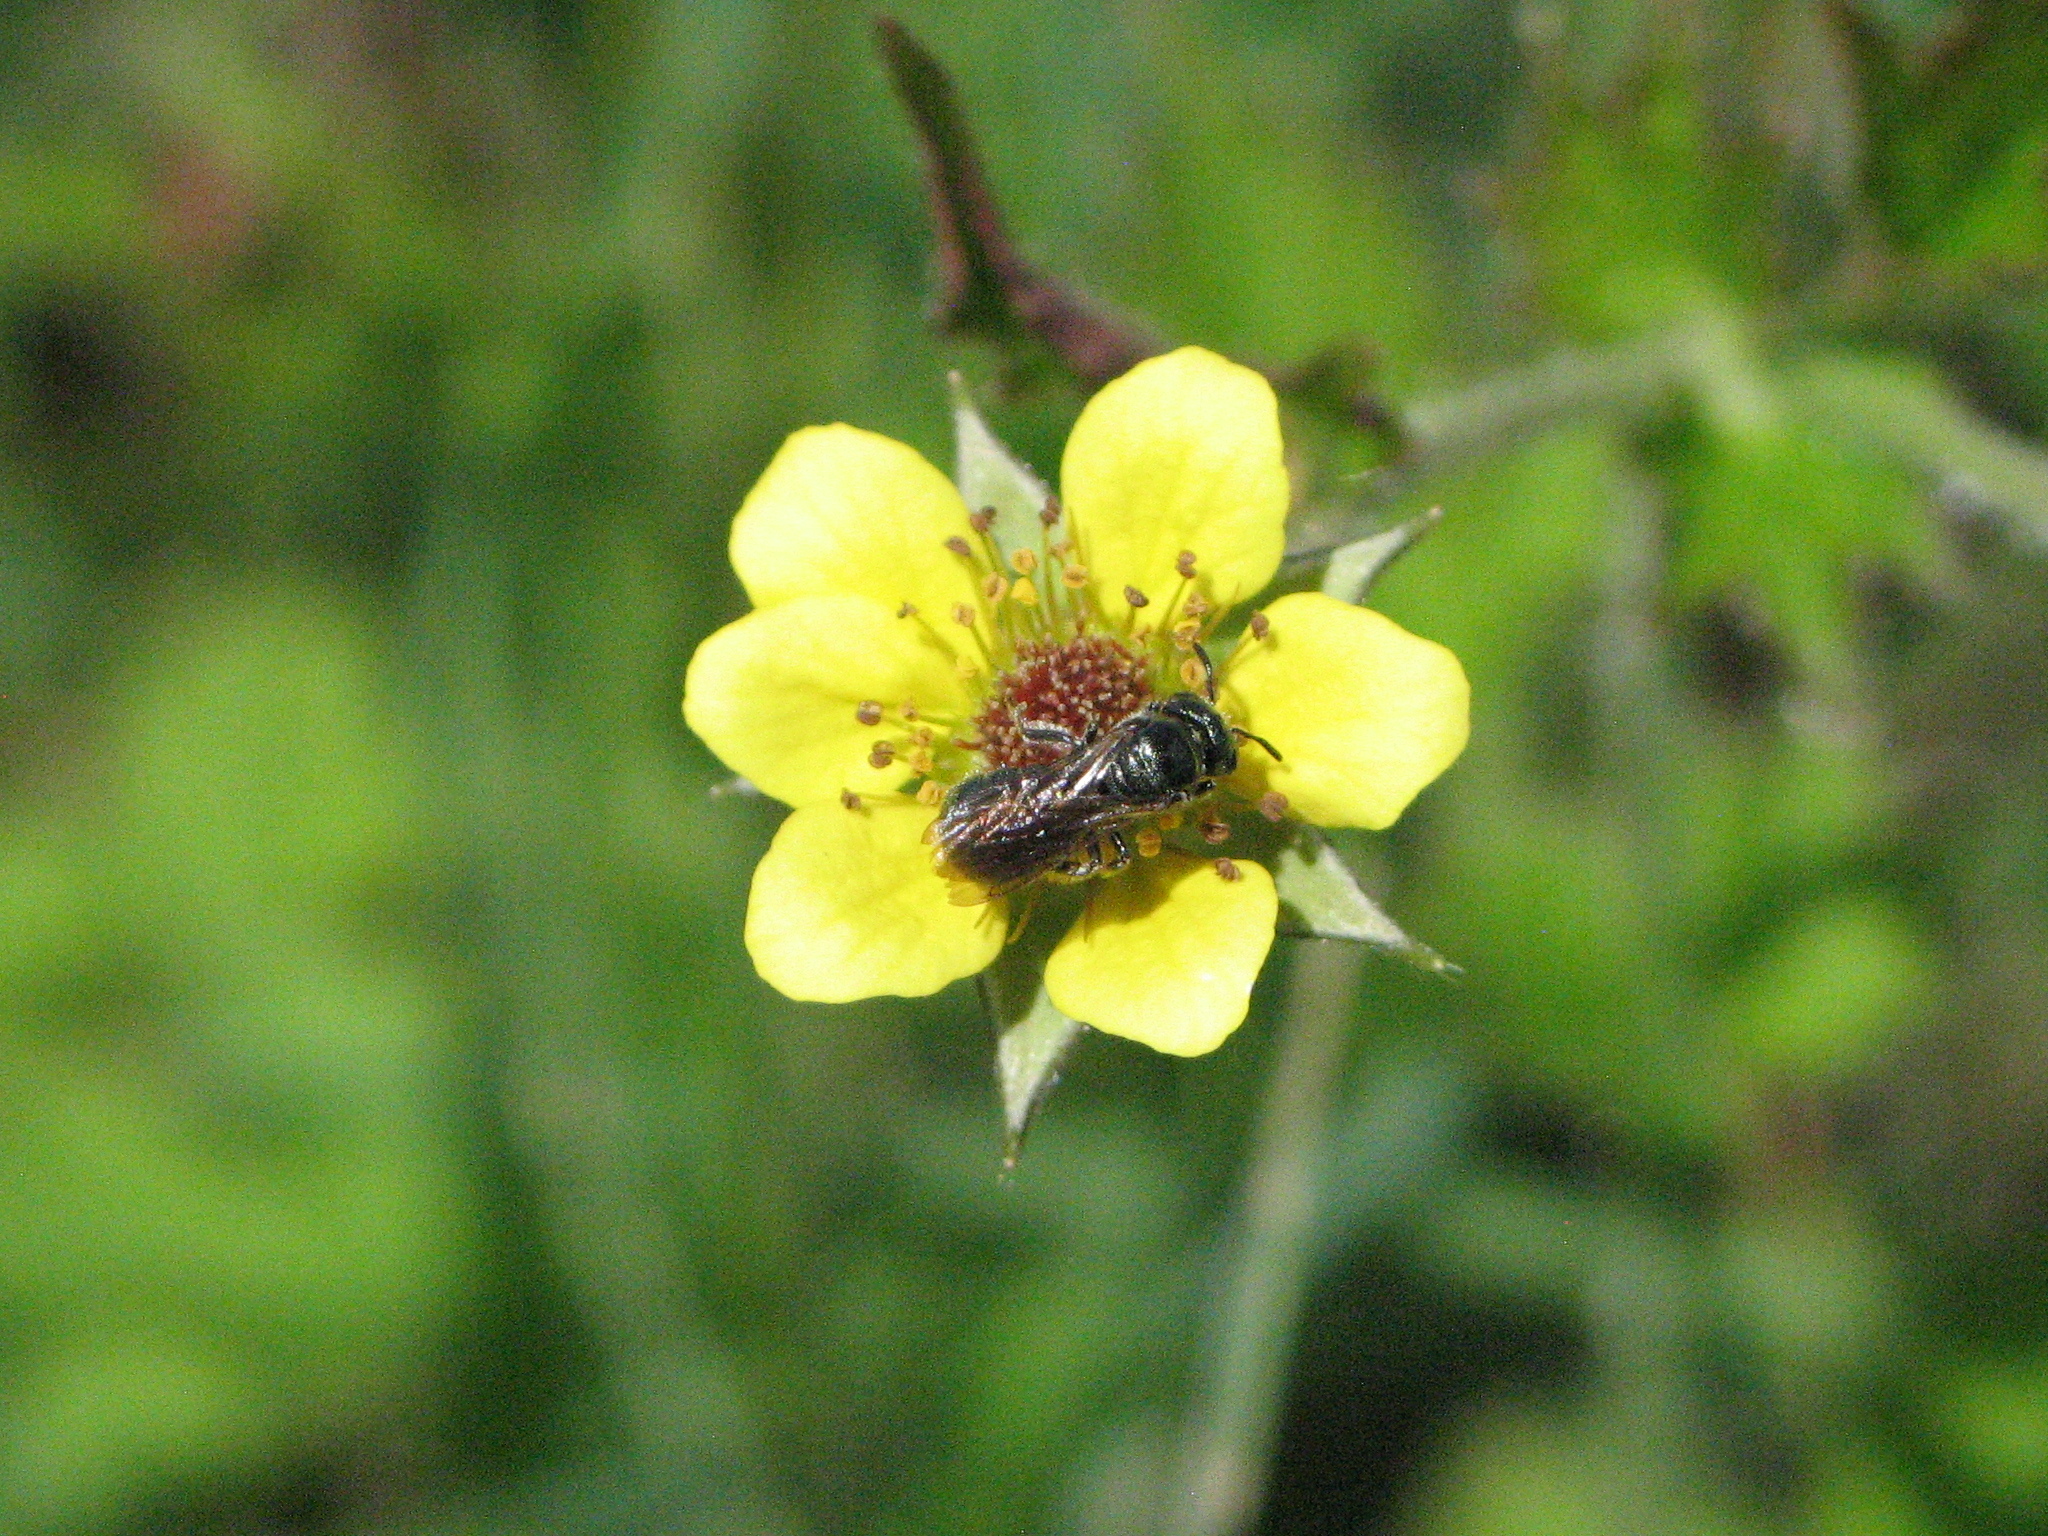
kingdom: Plantae
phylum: Tracheophyta
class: Magnoliopsida
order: Rosales
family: Rosaceae
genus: Geum
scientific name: Geum urbanum
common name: Wood avens
